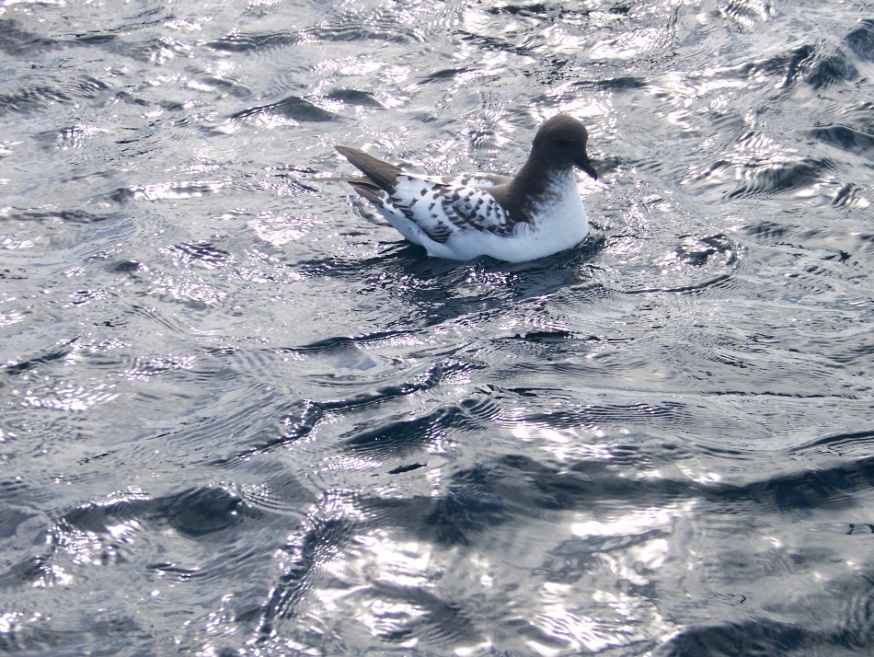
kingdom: Animalia
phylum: Chordata
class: Aves
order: Procellariiformes
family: Procellariidae
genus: Daption
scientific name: Daption capense
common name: Cape petrel
